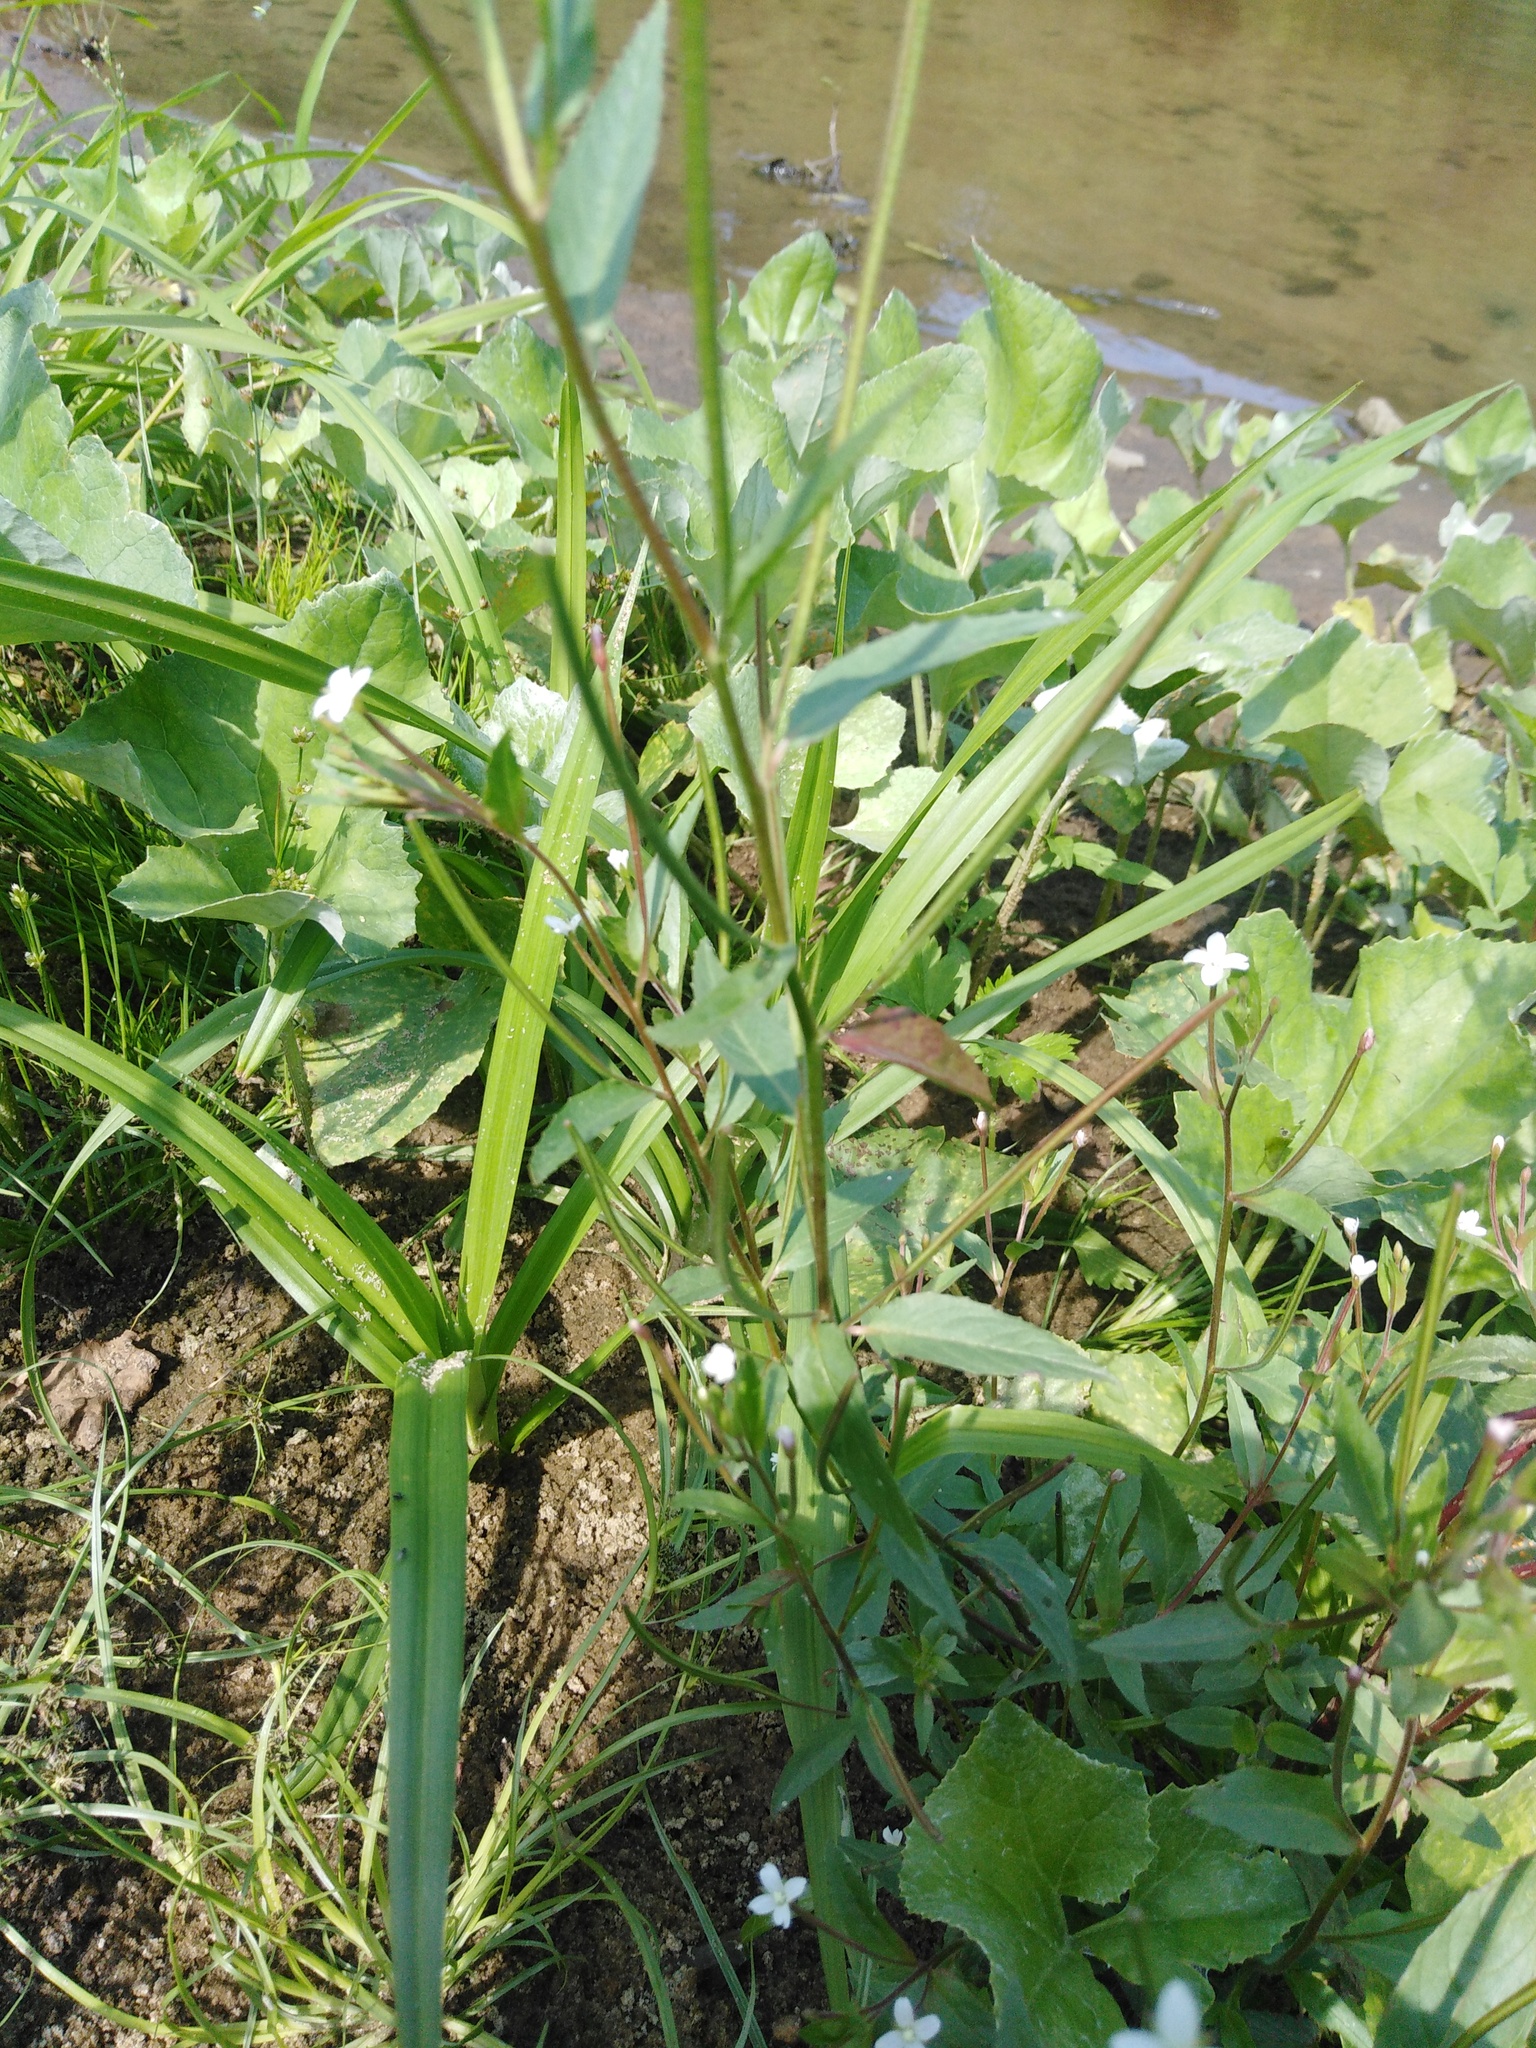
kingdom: Plantae
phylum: Tracheophyta
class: Magnoliopsida
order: Myrtales
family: Onagraceae
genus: Epilobium
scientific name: Epilobium pseudorubescens
